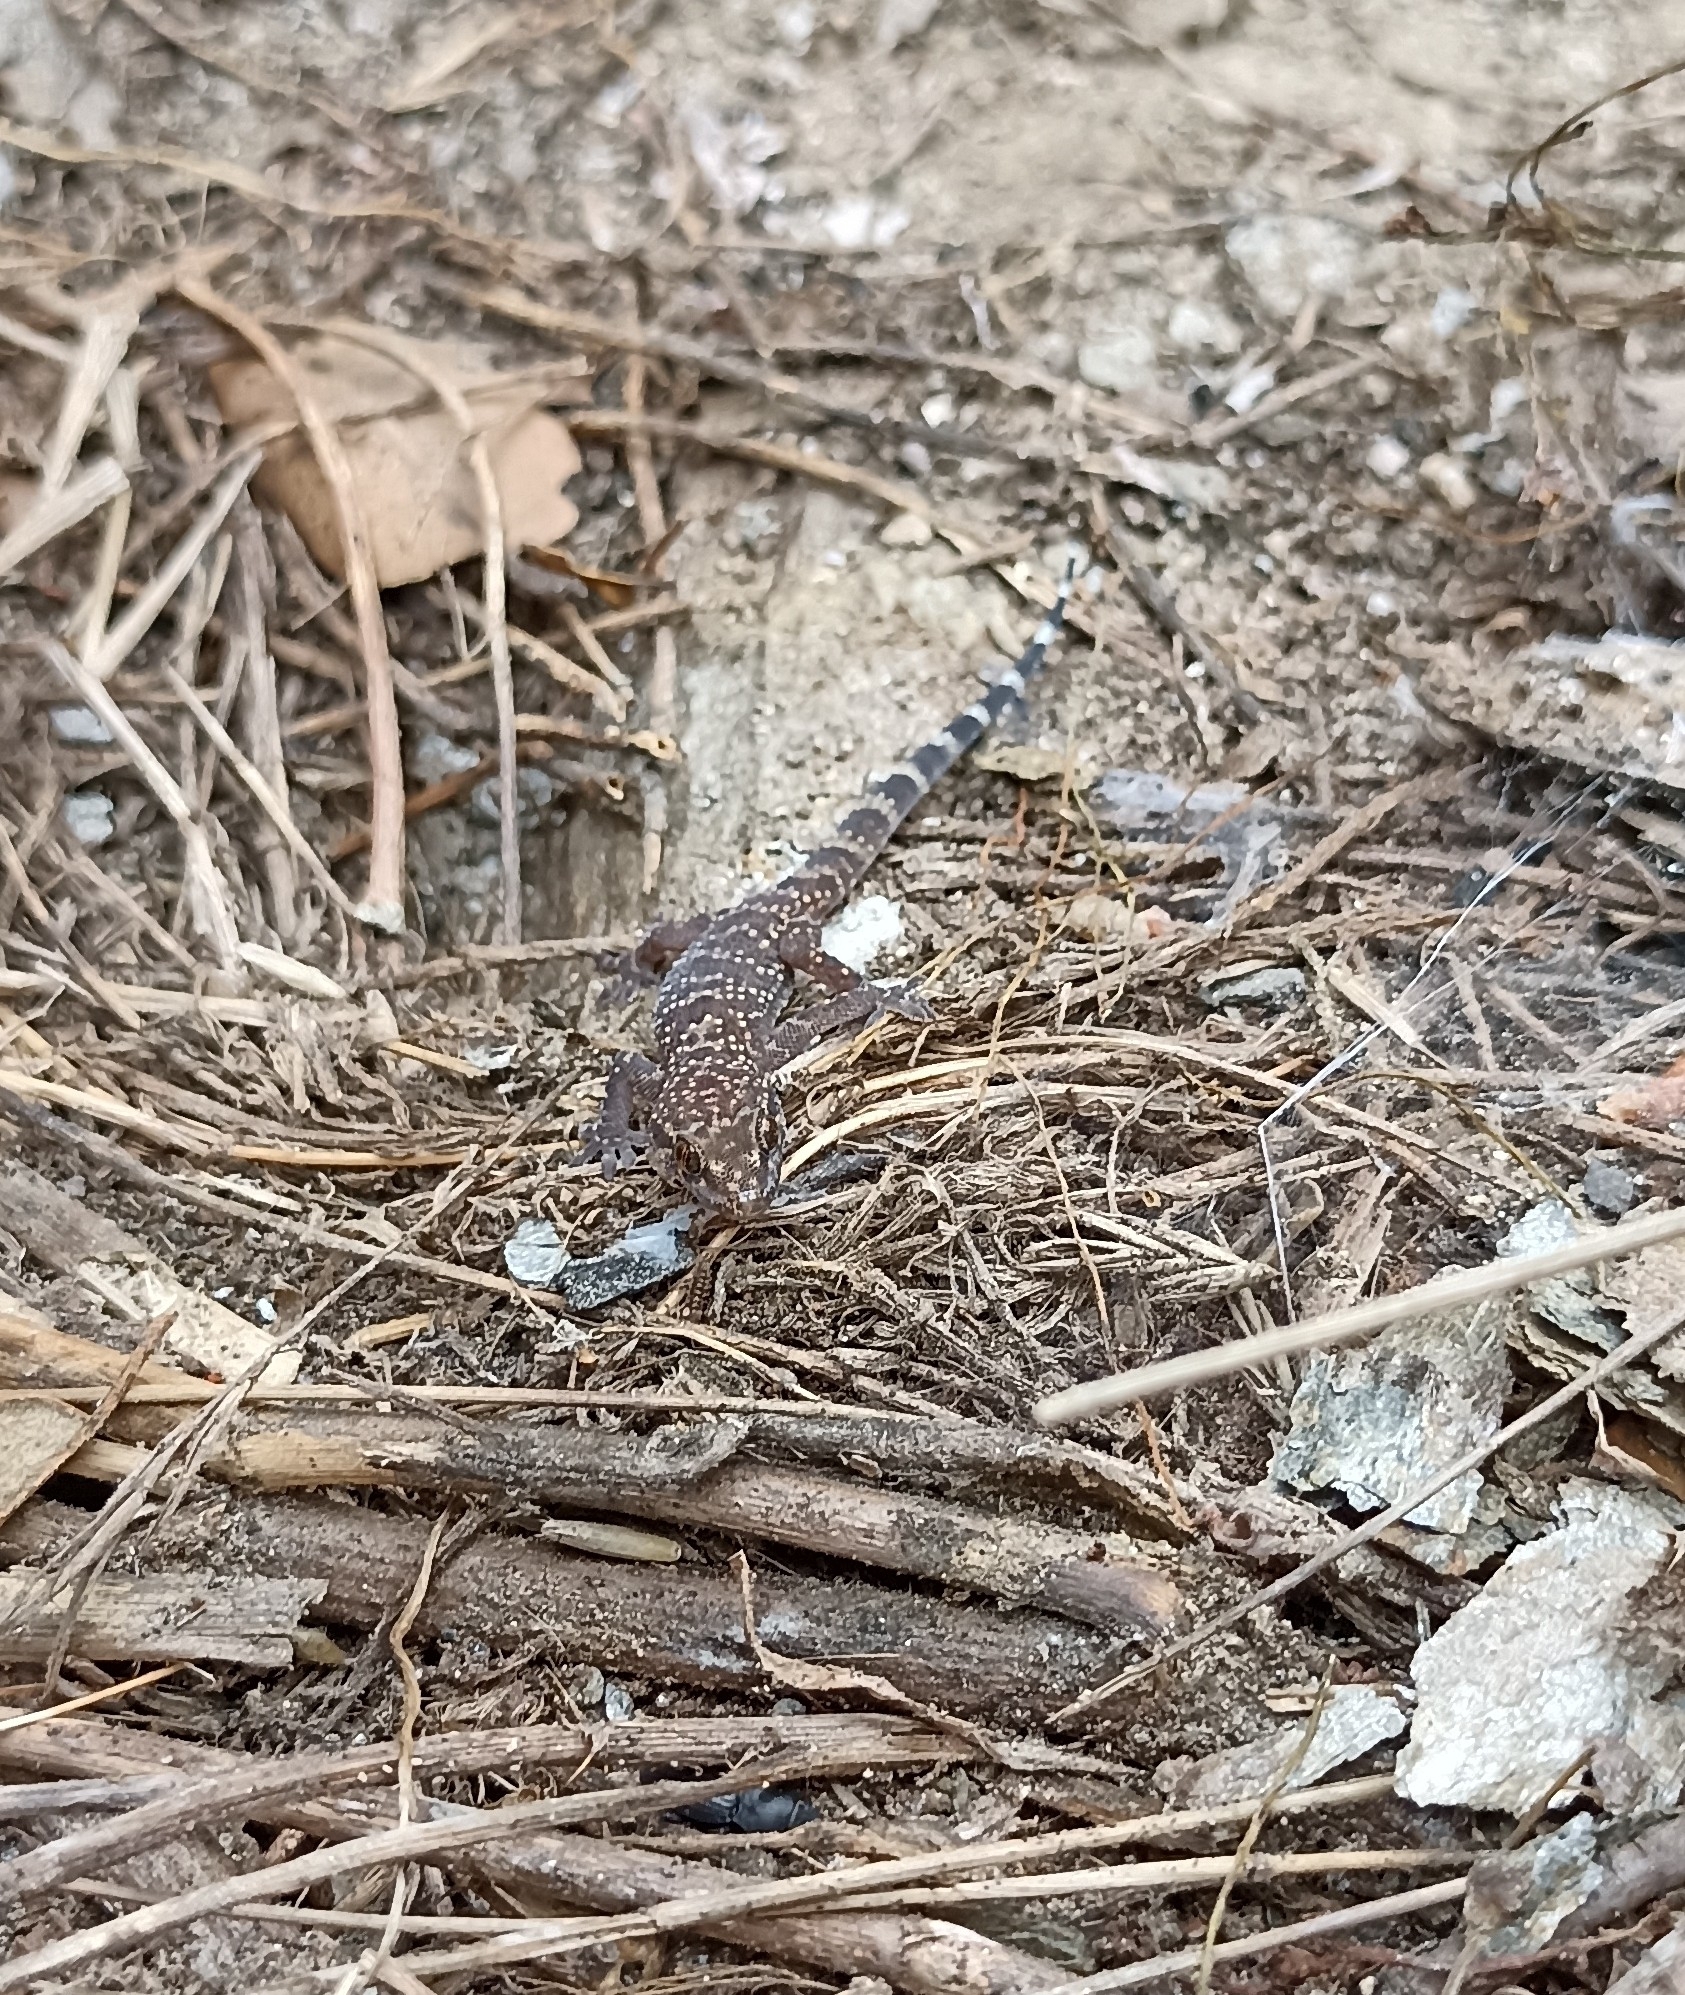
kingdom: Animalia
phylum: Chordata
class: Squamata
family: Gekkonidae
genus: Hemidactylus
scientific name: Hemidactylus turcicus
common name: Turkish gecko
